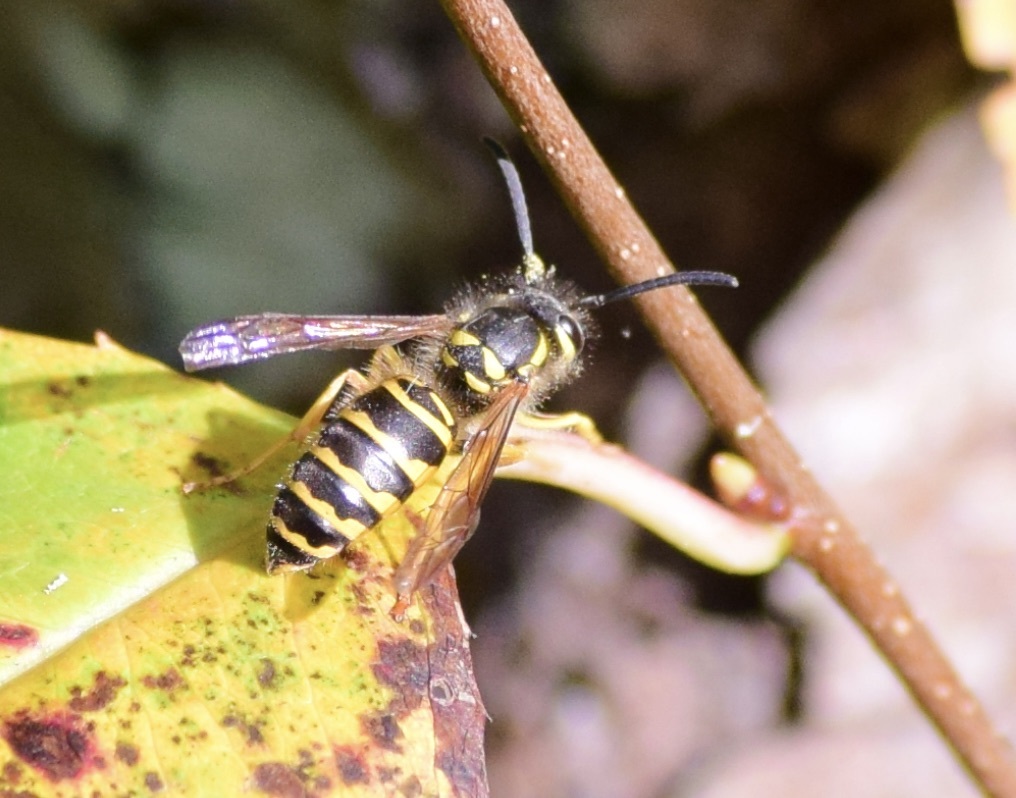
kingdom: Animalia
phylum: Arthropoda
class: Insecta
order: Hymenoptera
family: Vespidae
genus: Vespula
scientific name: Vespula maculifrons
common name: Eastern yellowjacket
